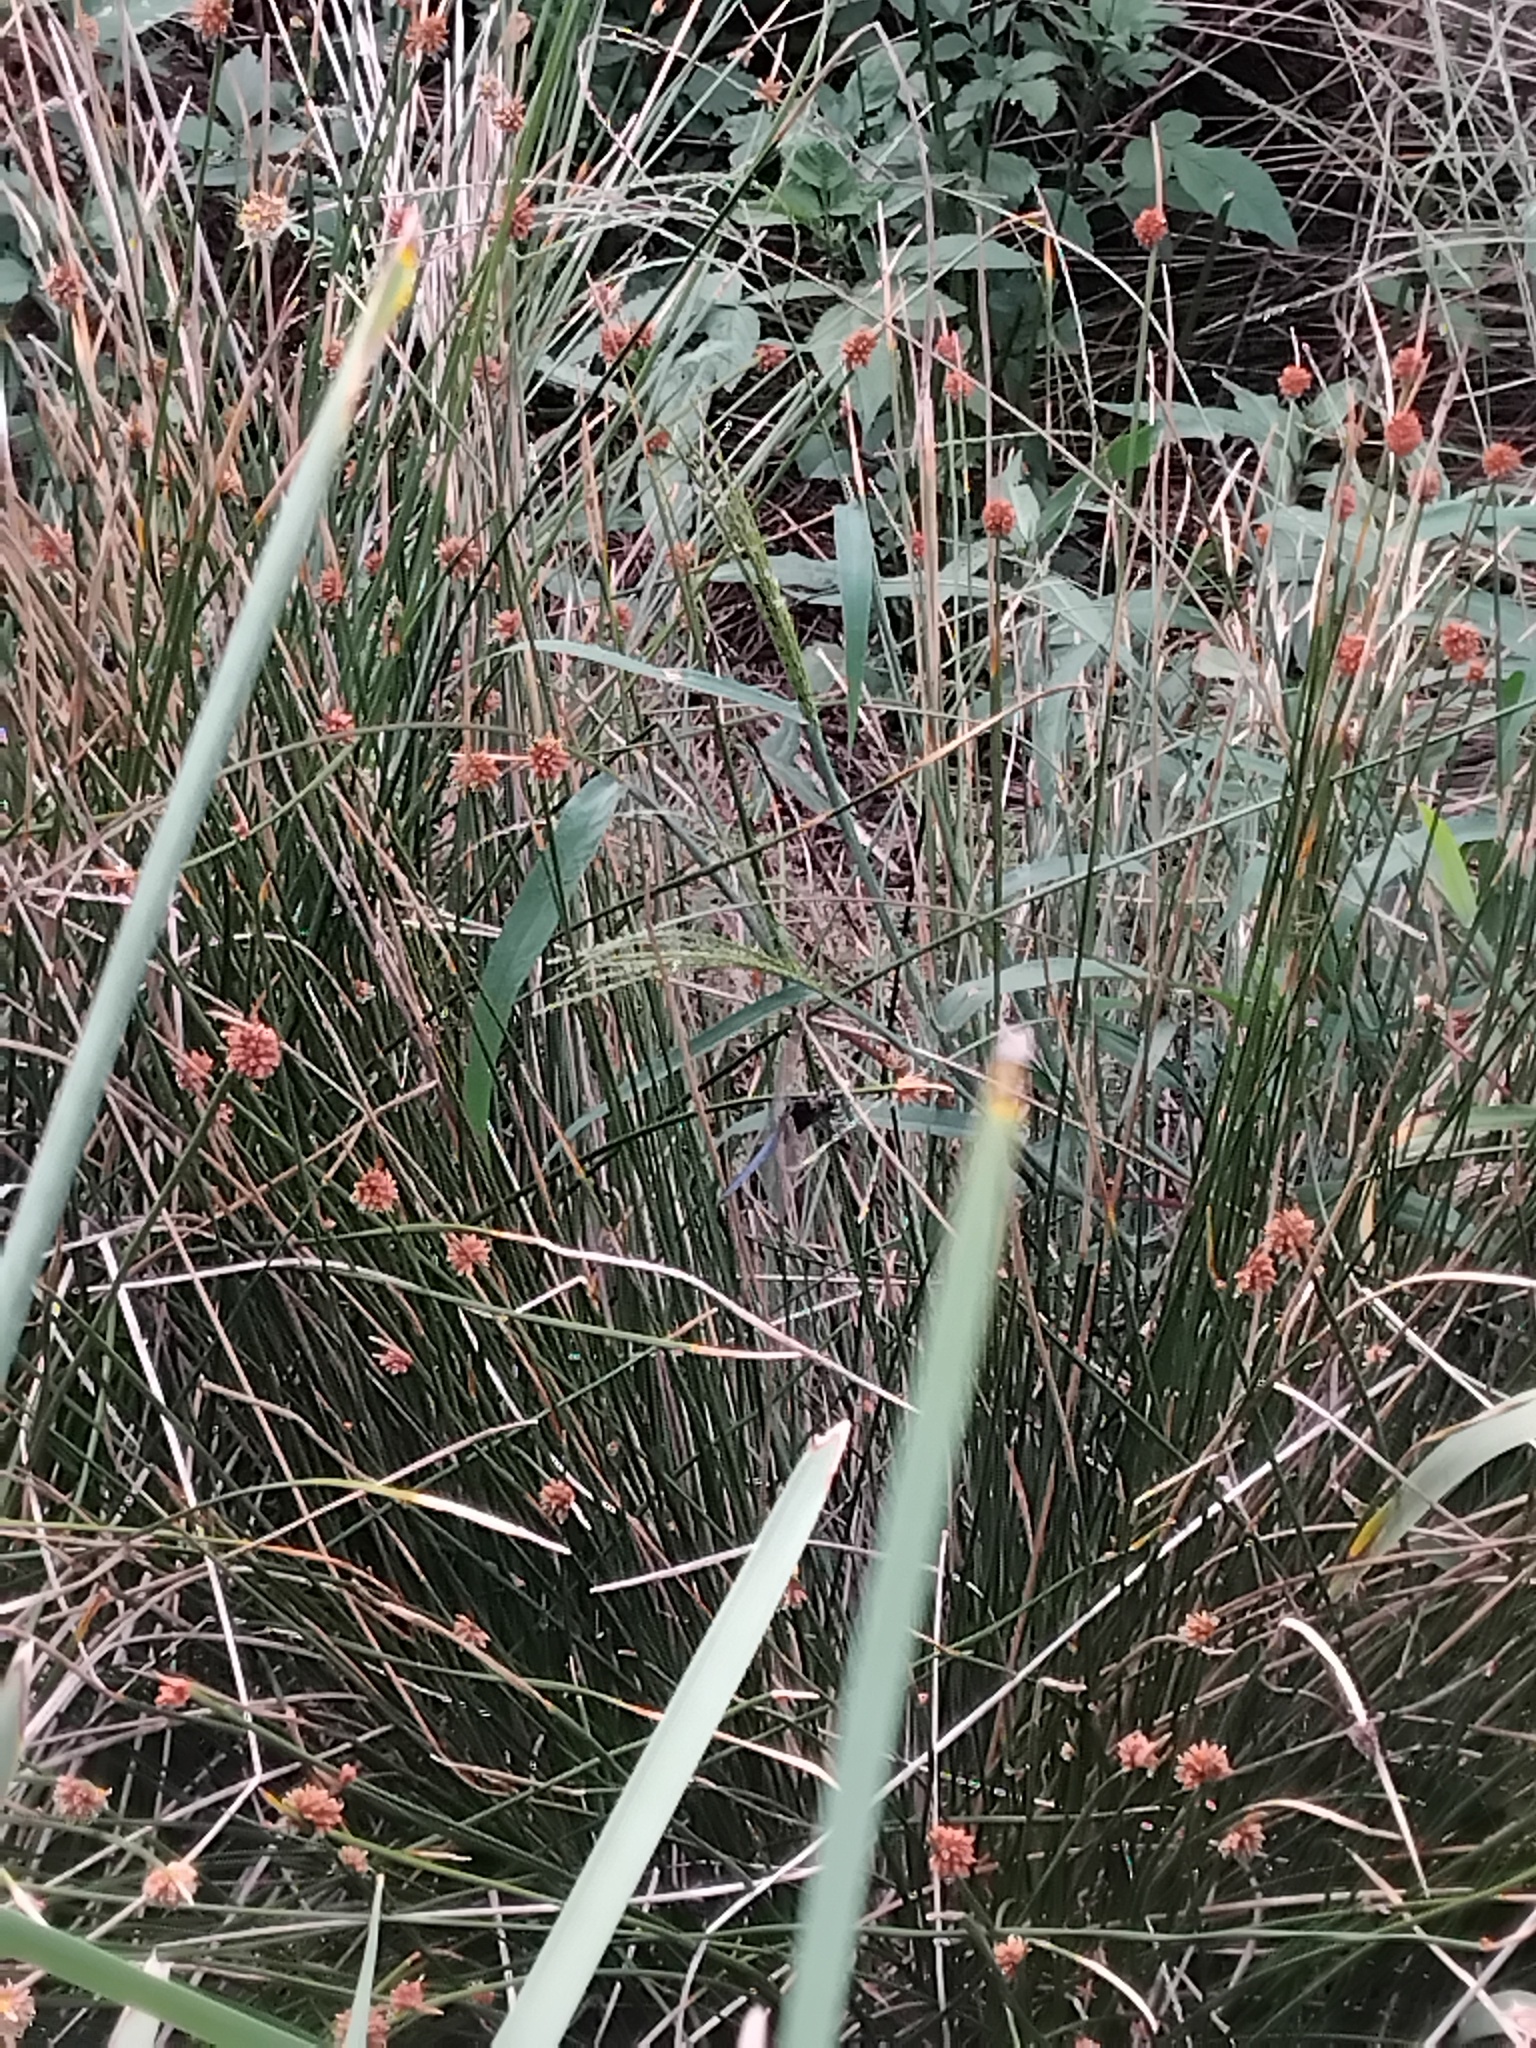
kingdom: Animalia
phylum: Arthropoda
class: Insecta
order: Odonata
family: Libellulidae
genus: Crocothemis
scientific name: Crocothemis nigrifrons
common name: Black-headed skimmer
